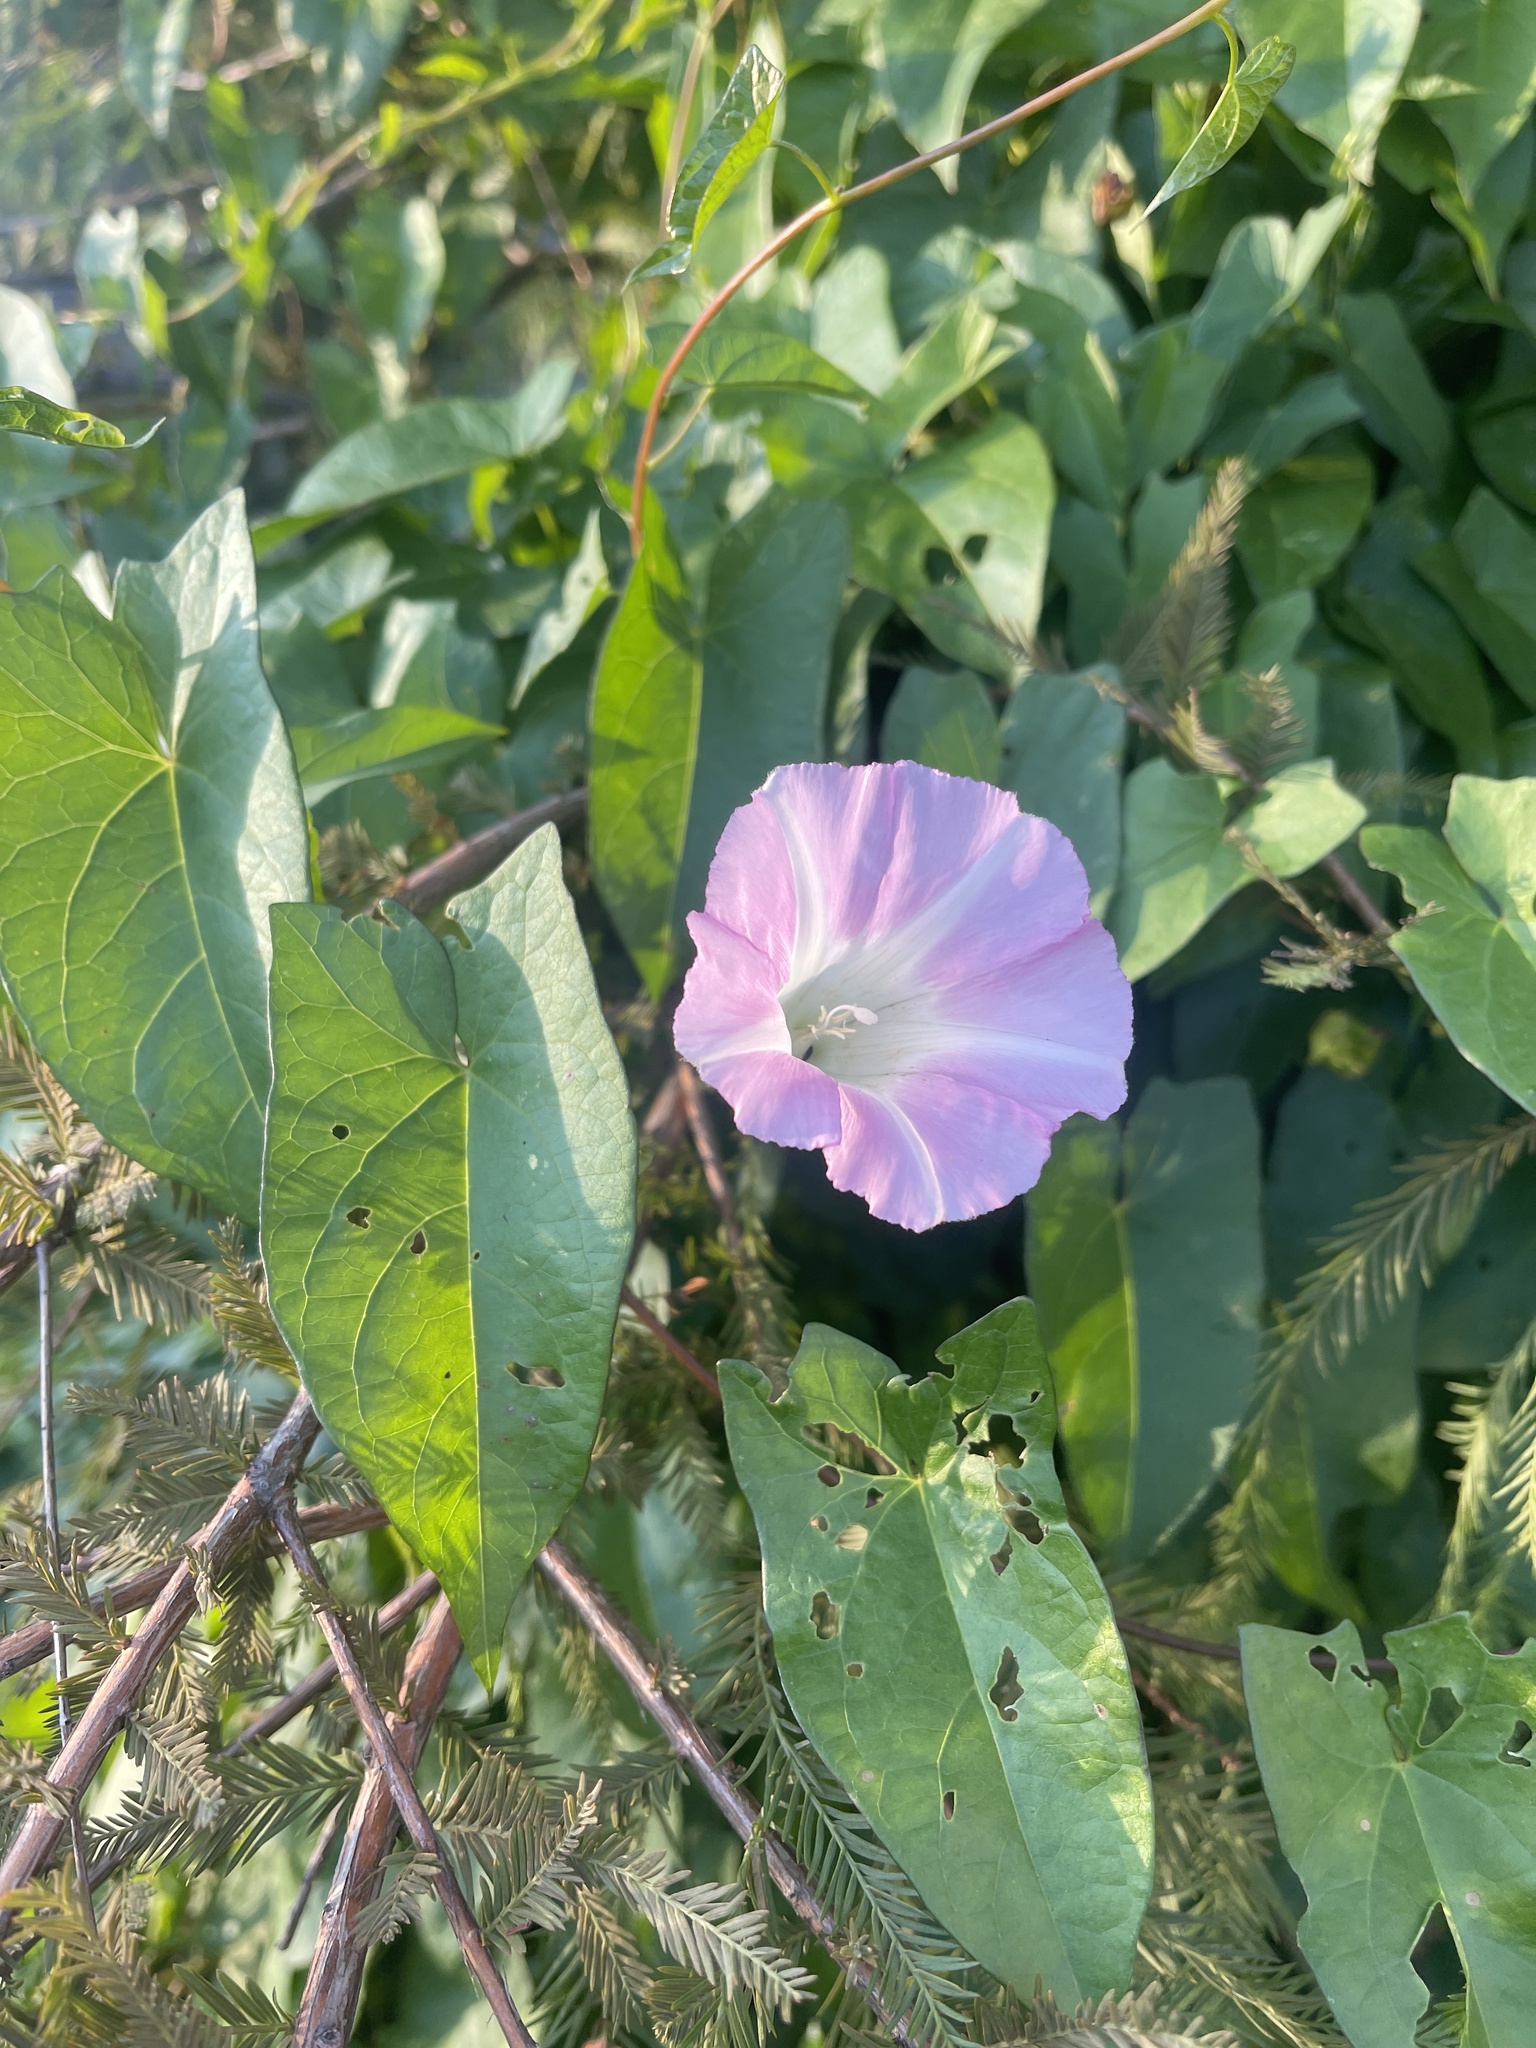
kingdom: Plantae
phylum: Tracheophyta
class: Magnoliopsida
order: Solanales
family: Convolvulaceae
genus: Calystegia
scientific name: Calystegia sepium
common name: Hedge bindweed
